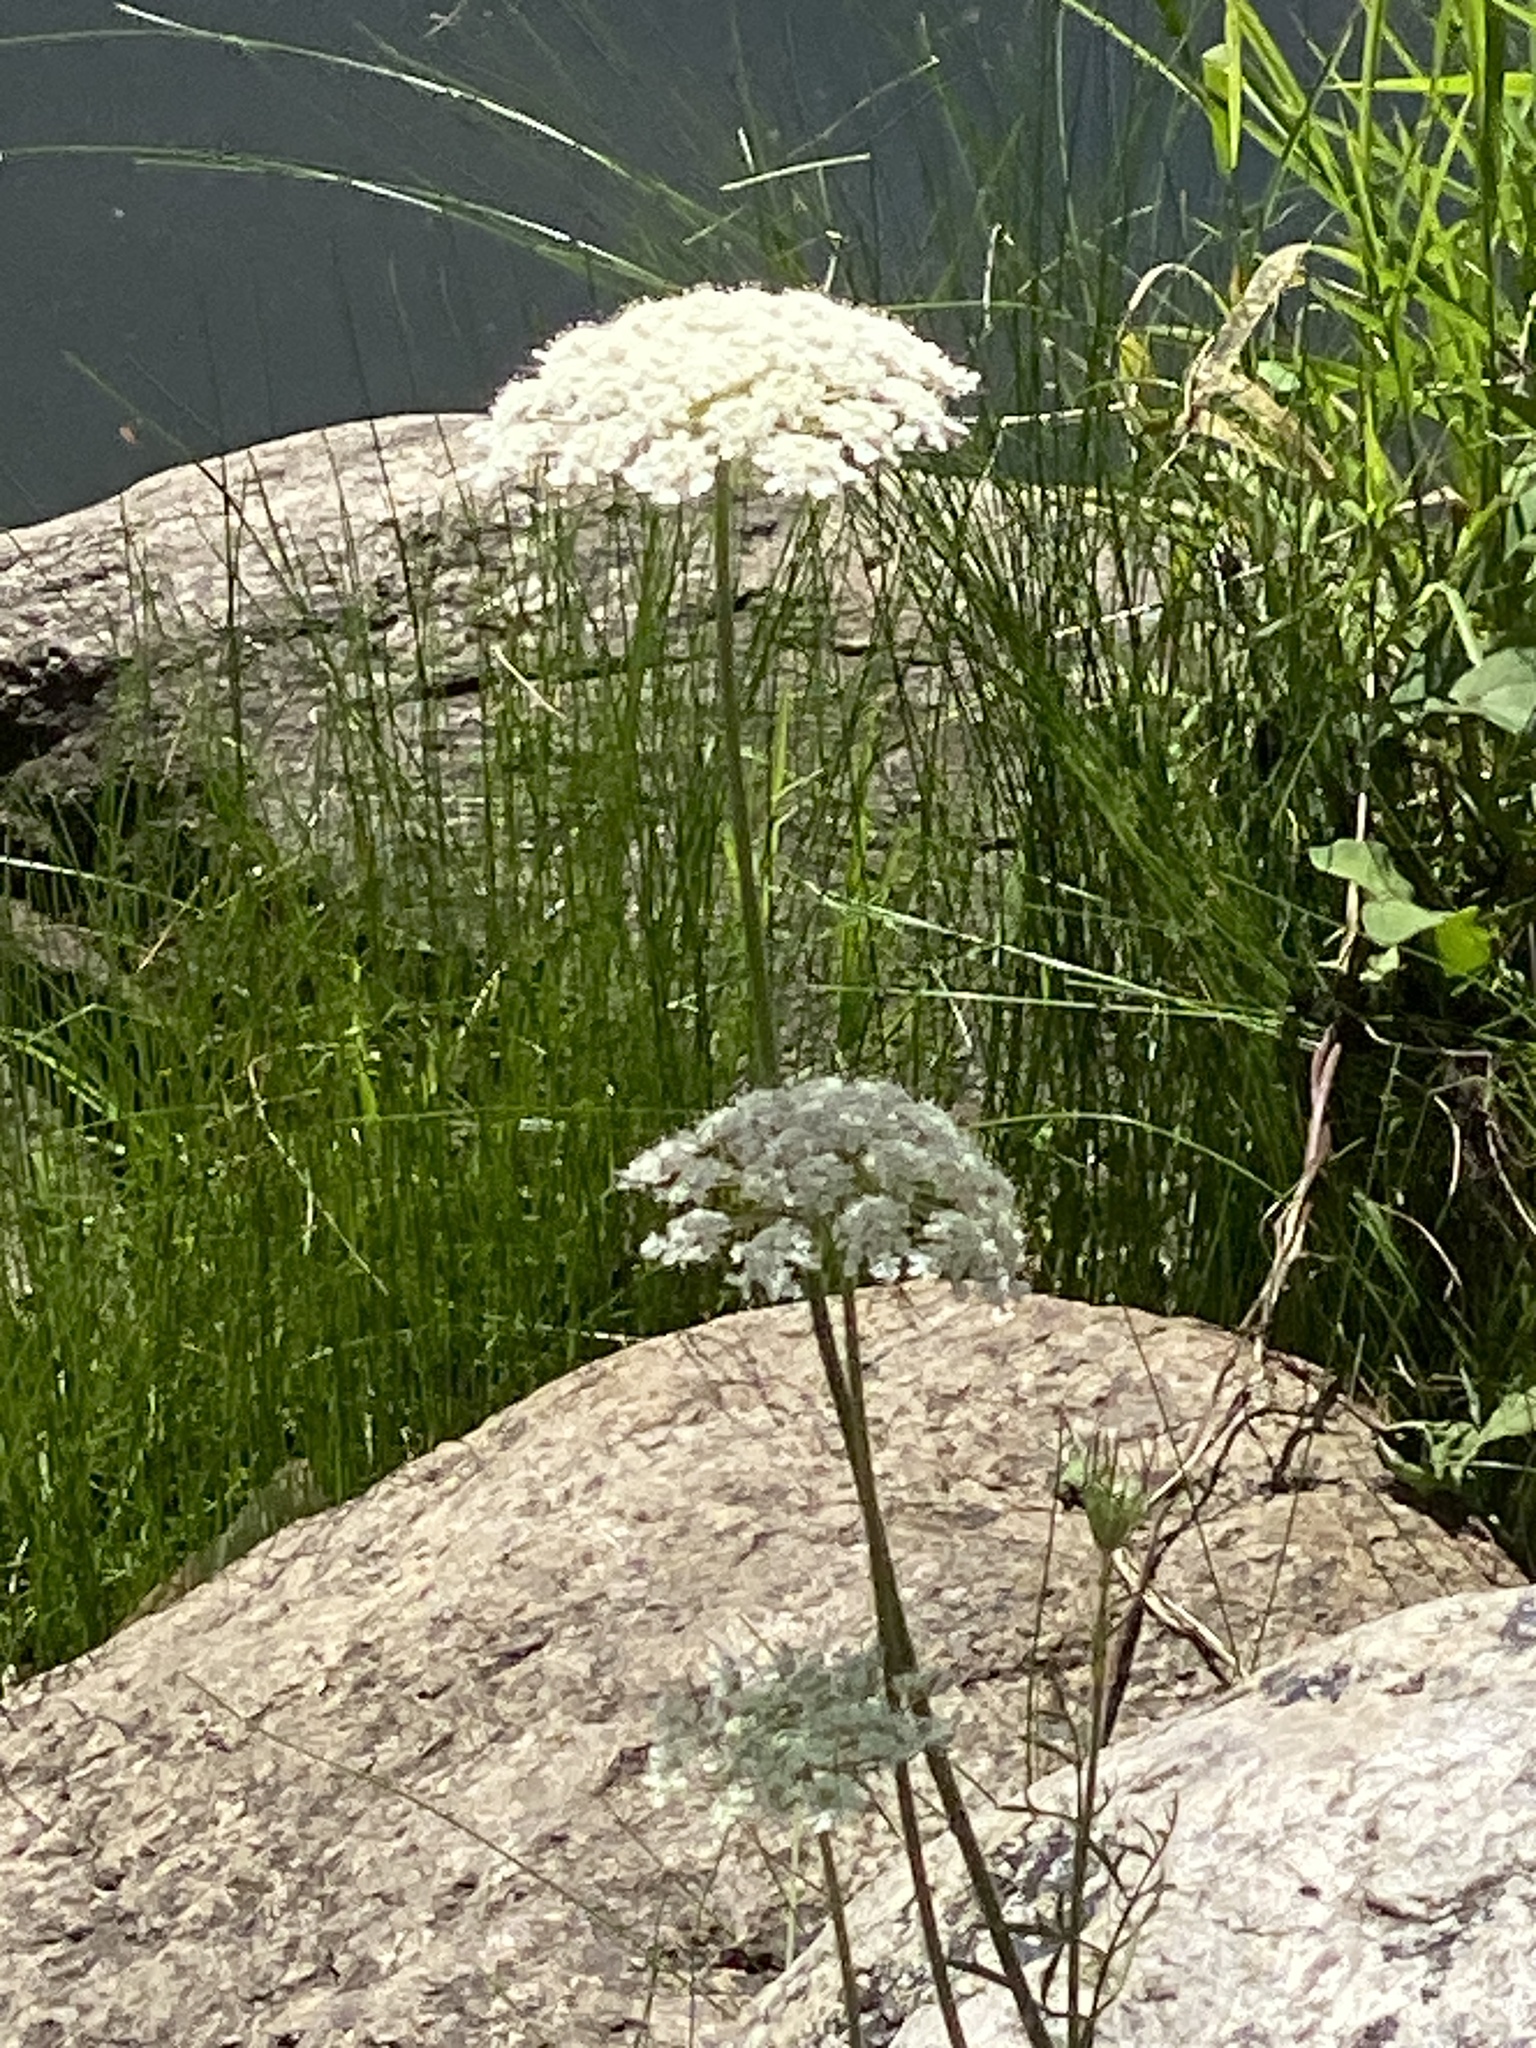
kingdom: Plantae
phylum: Tracheophyta
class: Magnoliopsida
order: Apiales
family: Apiaceae
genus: Daucus
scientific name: Daucus carota
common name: Wild carrot
